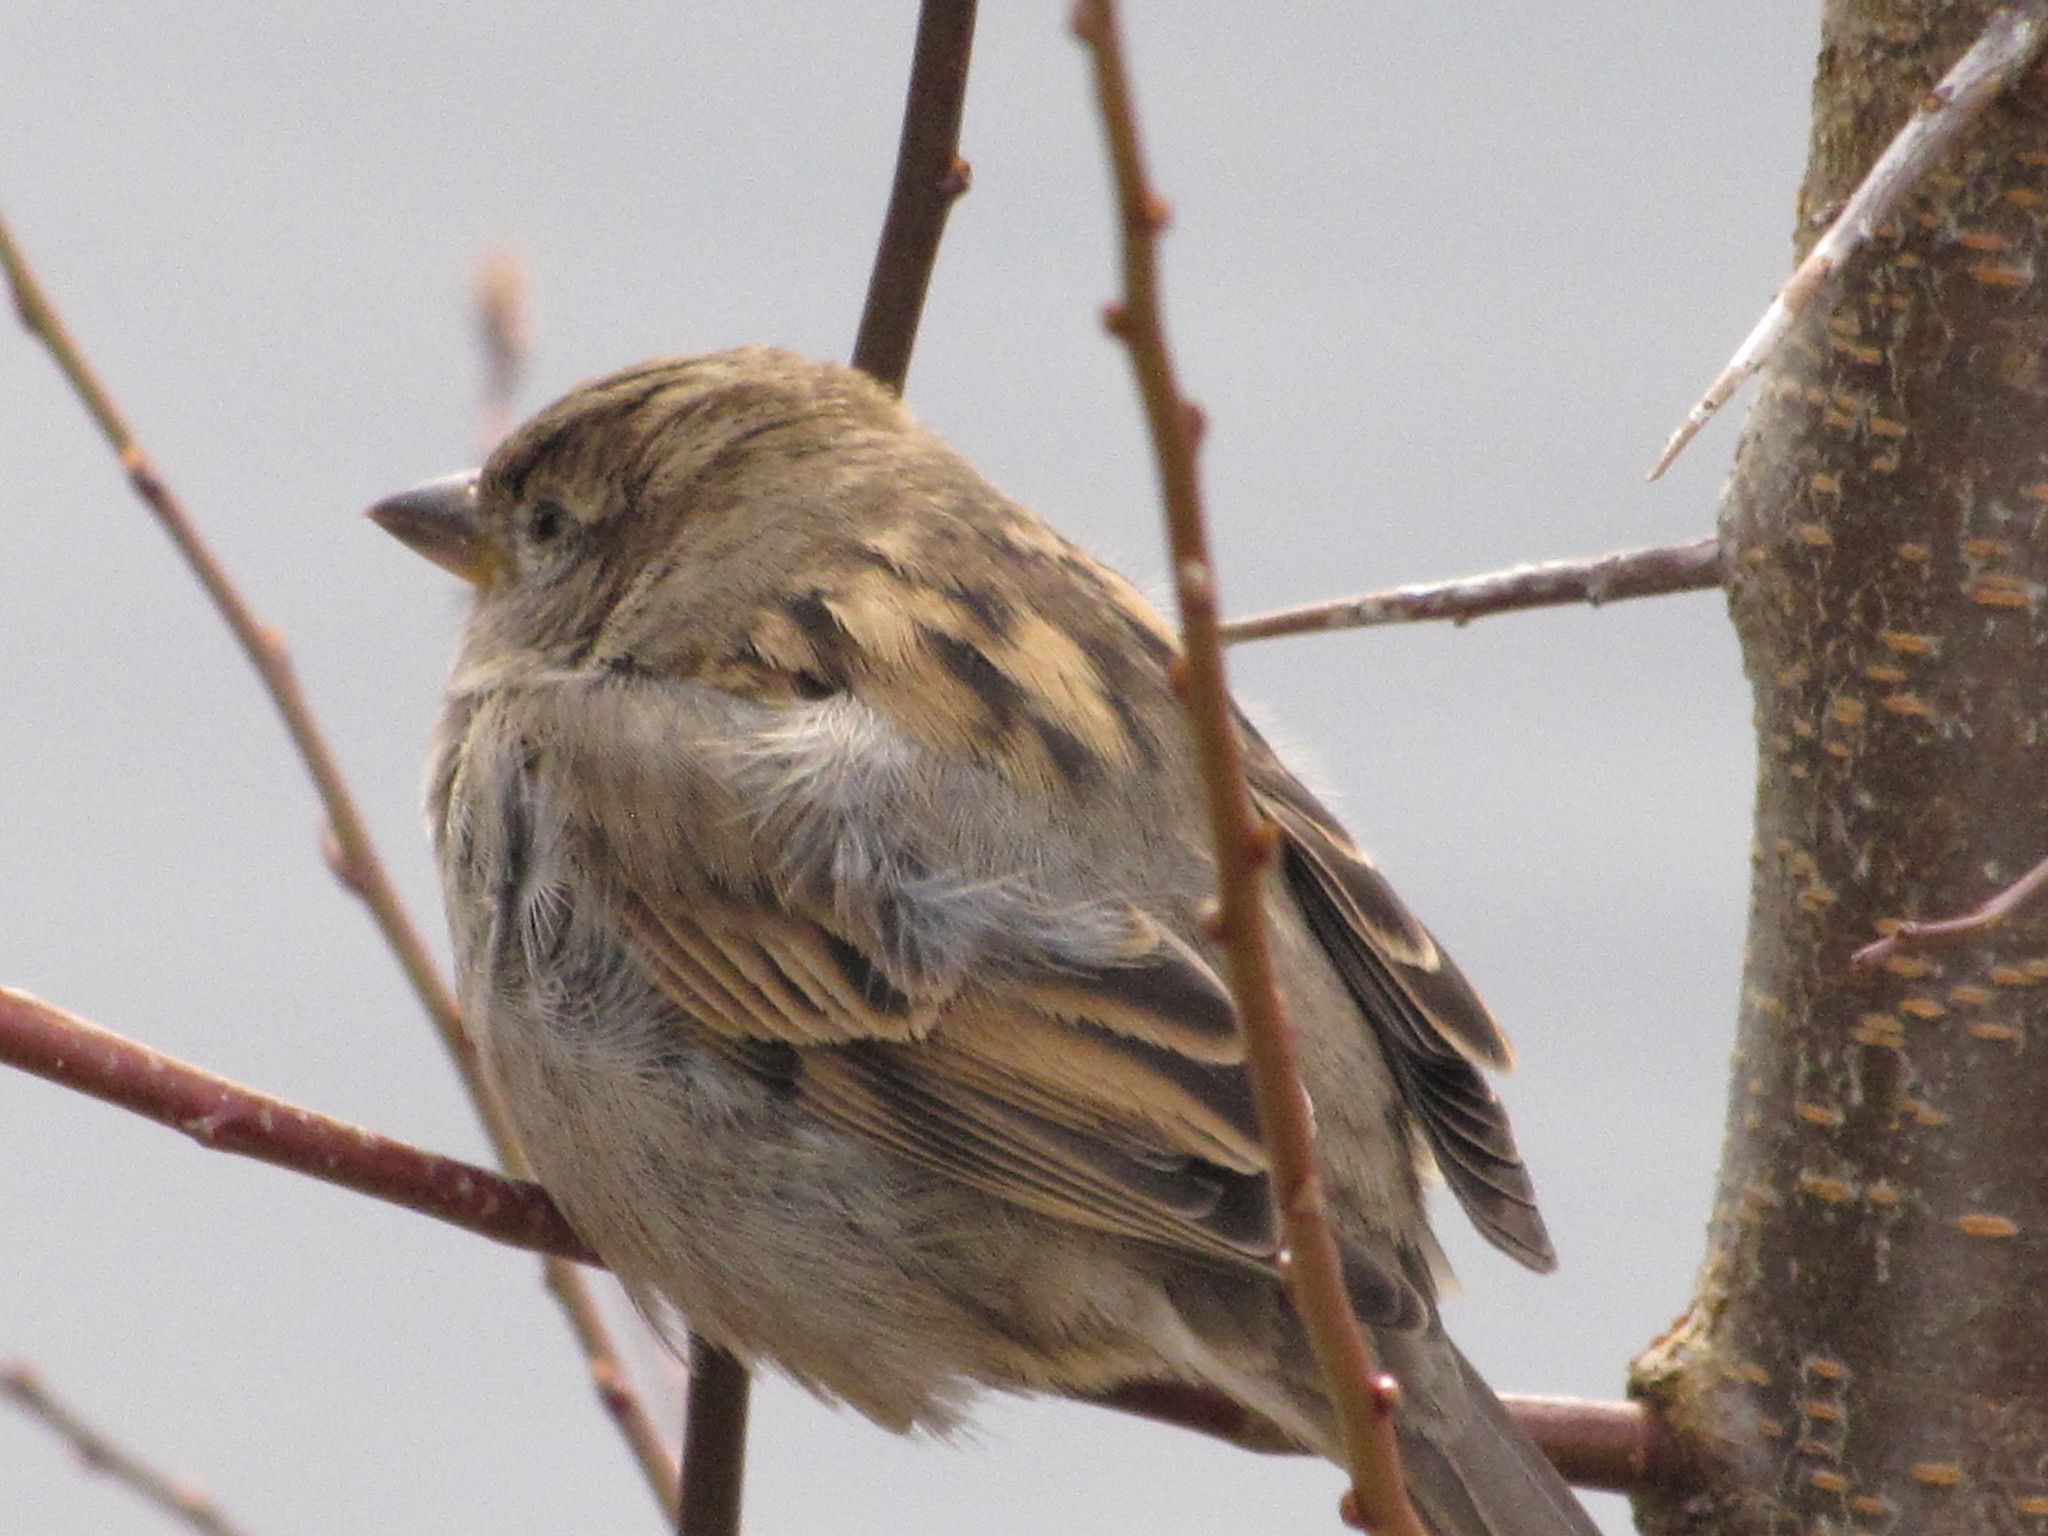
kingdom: Animalia
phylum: Chordata
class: Aves
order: Passeriformes
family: Passeridae
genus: Passer
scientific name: Passer domesticus
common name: House sparrow
